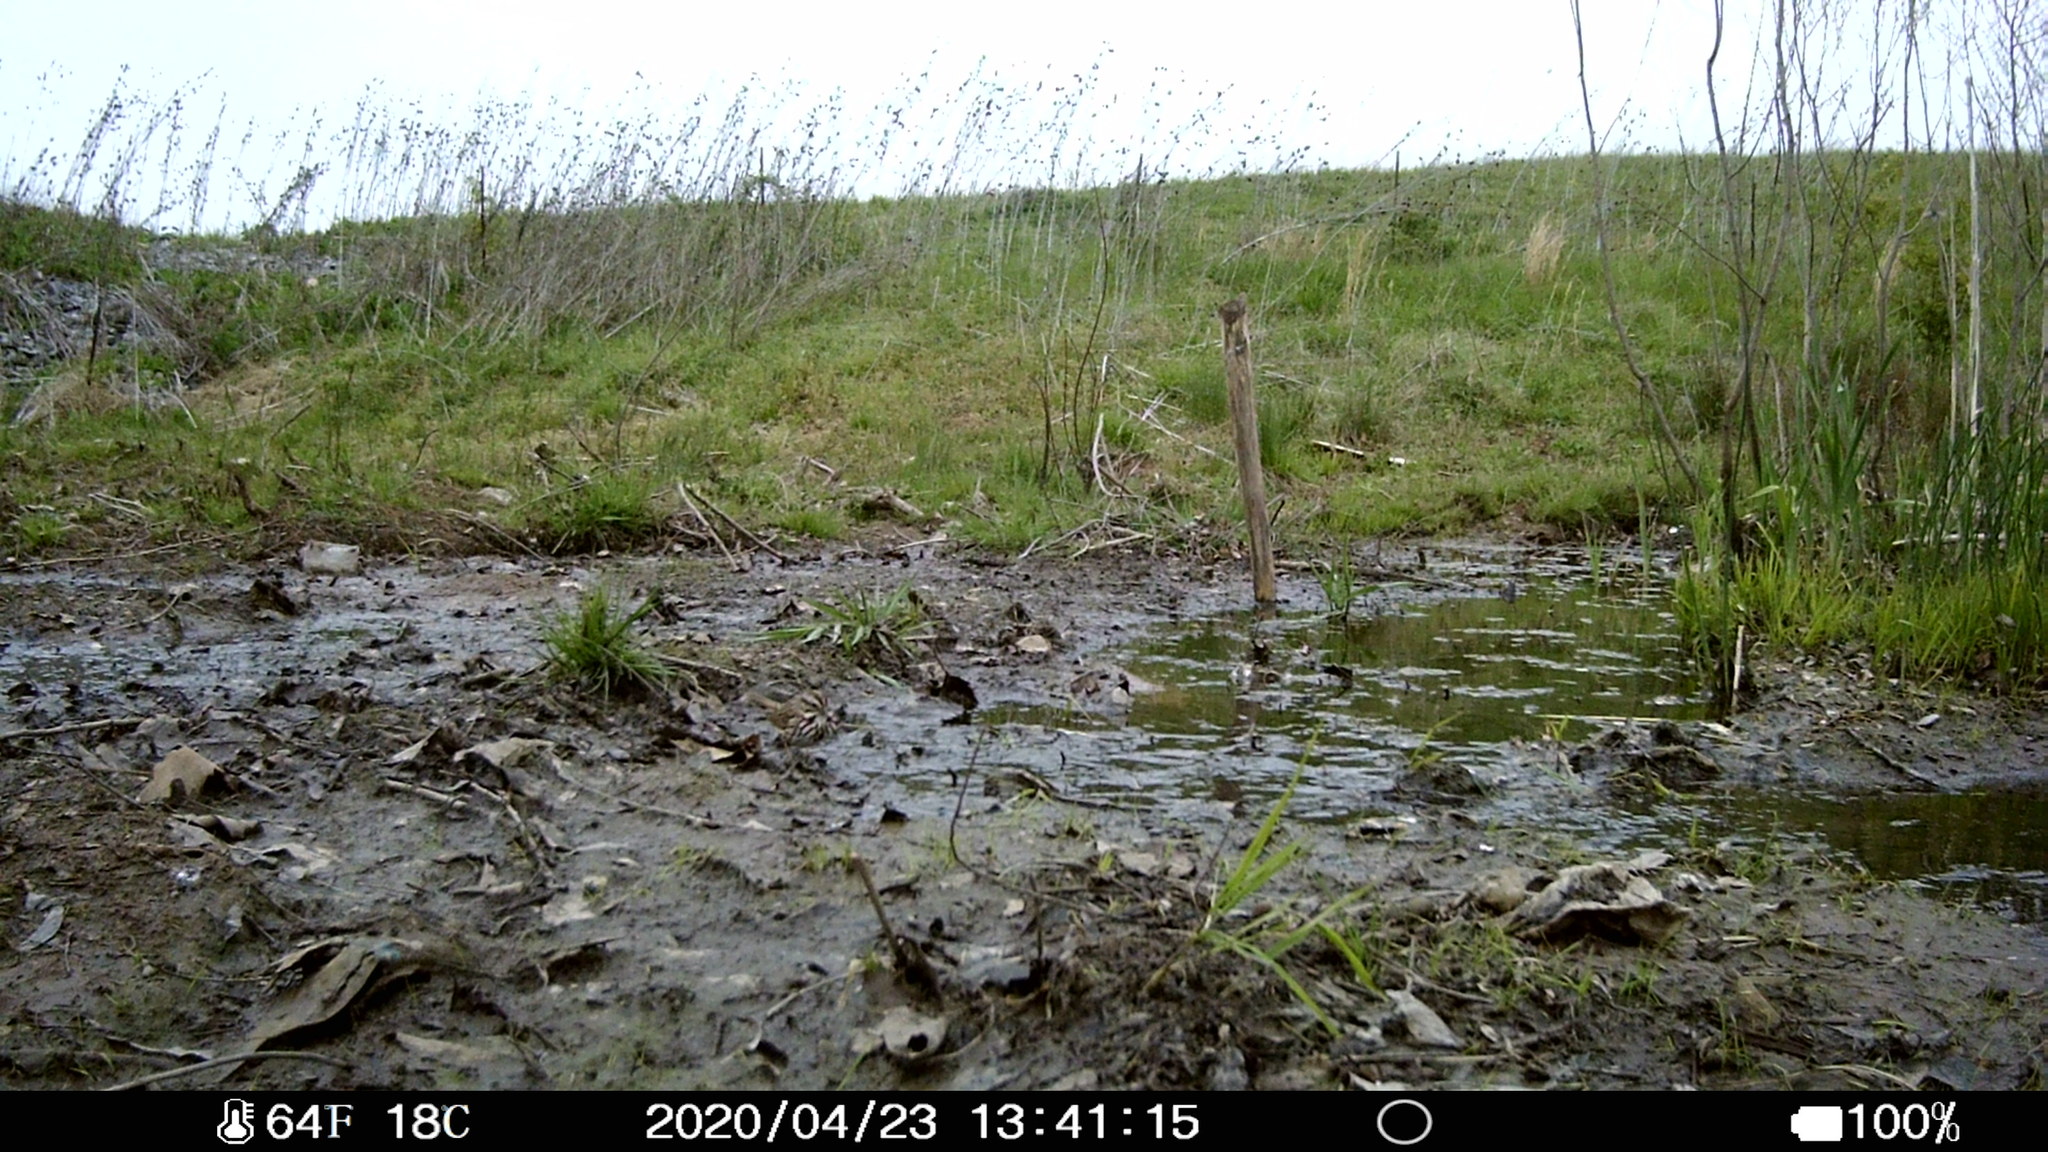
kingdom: Animalia
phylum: Chordata
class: Aves
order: Passeriformes
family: Passerellidae
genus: Melospiza
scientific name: Melospiza melodia
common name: Song sparrow
